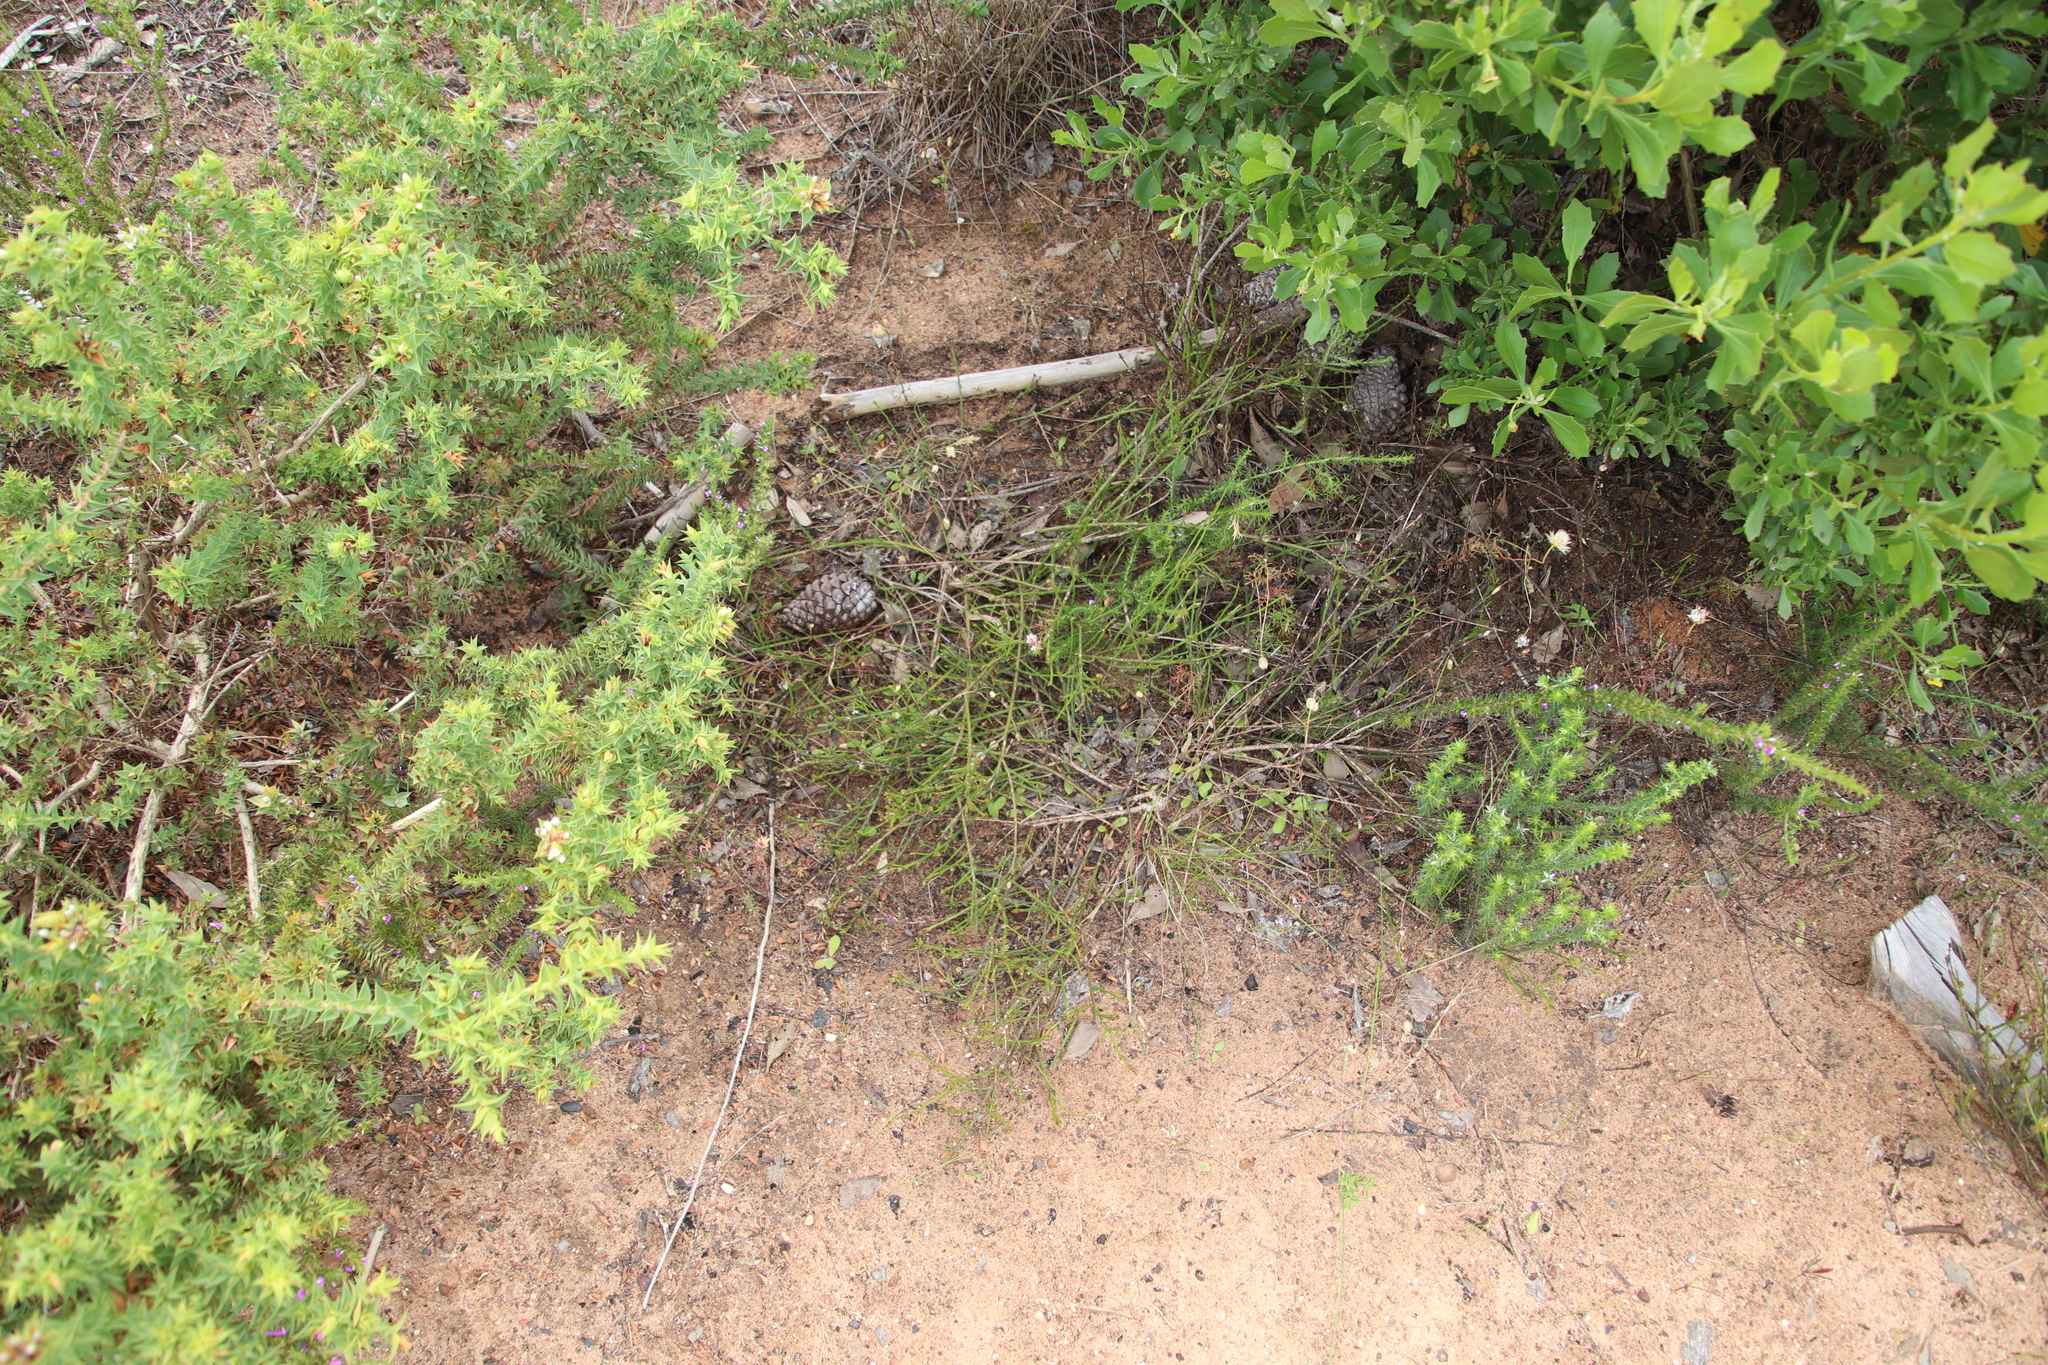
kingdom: Plantae
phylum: Tracheophyta
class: Magnoliopsida
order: Santalales
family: Thesiaceae
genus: Thesium
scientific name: Thesium aggregatum
